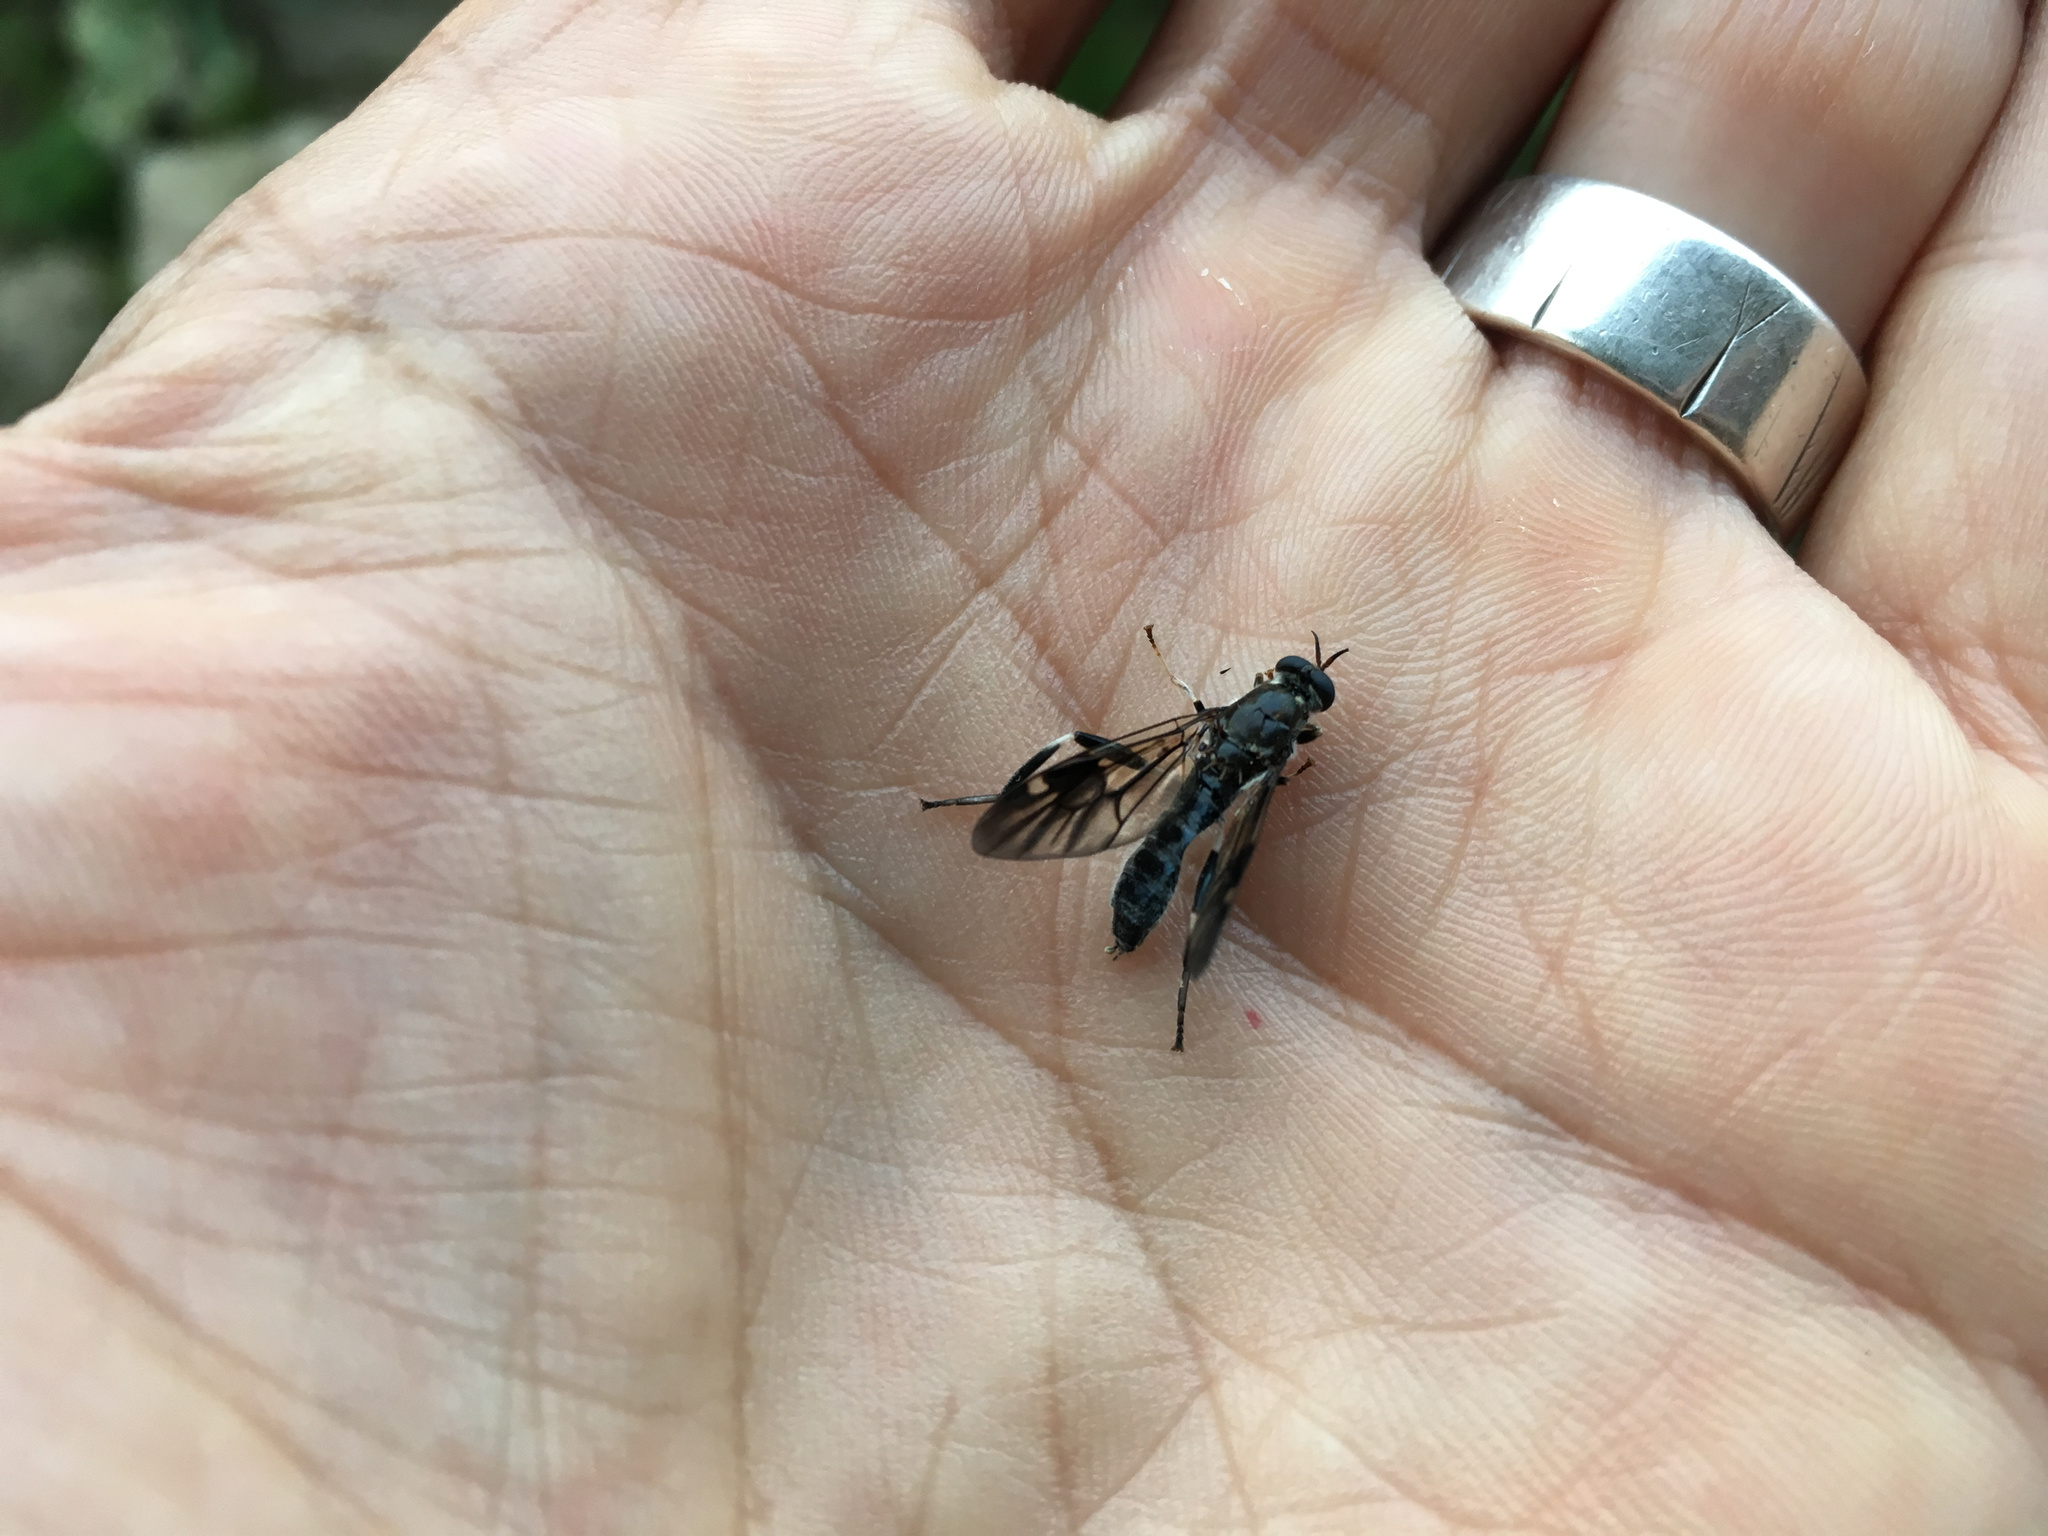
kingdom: Animalia
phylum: Arthropoda
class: Insecta
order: Diptera
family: Stratiomyidae
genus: Exaireta
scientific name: Exaireta spinigera
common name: Blue soldier fly
